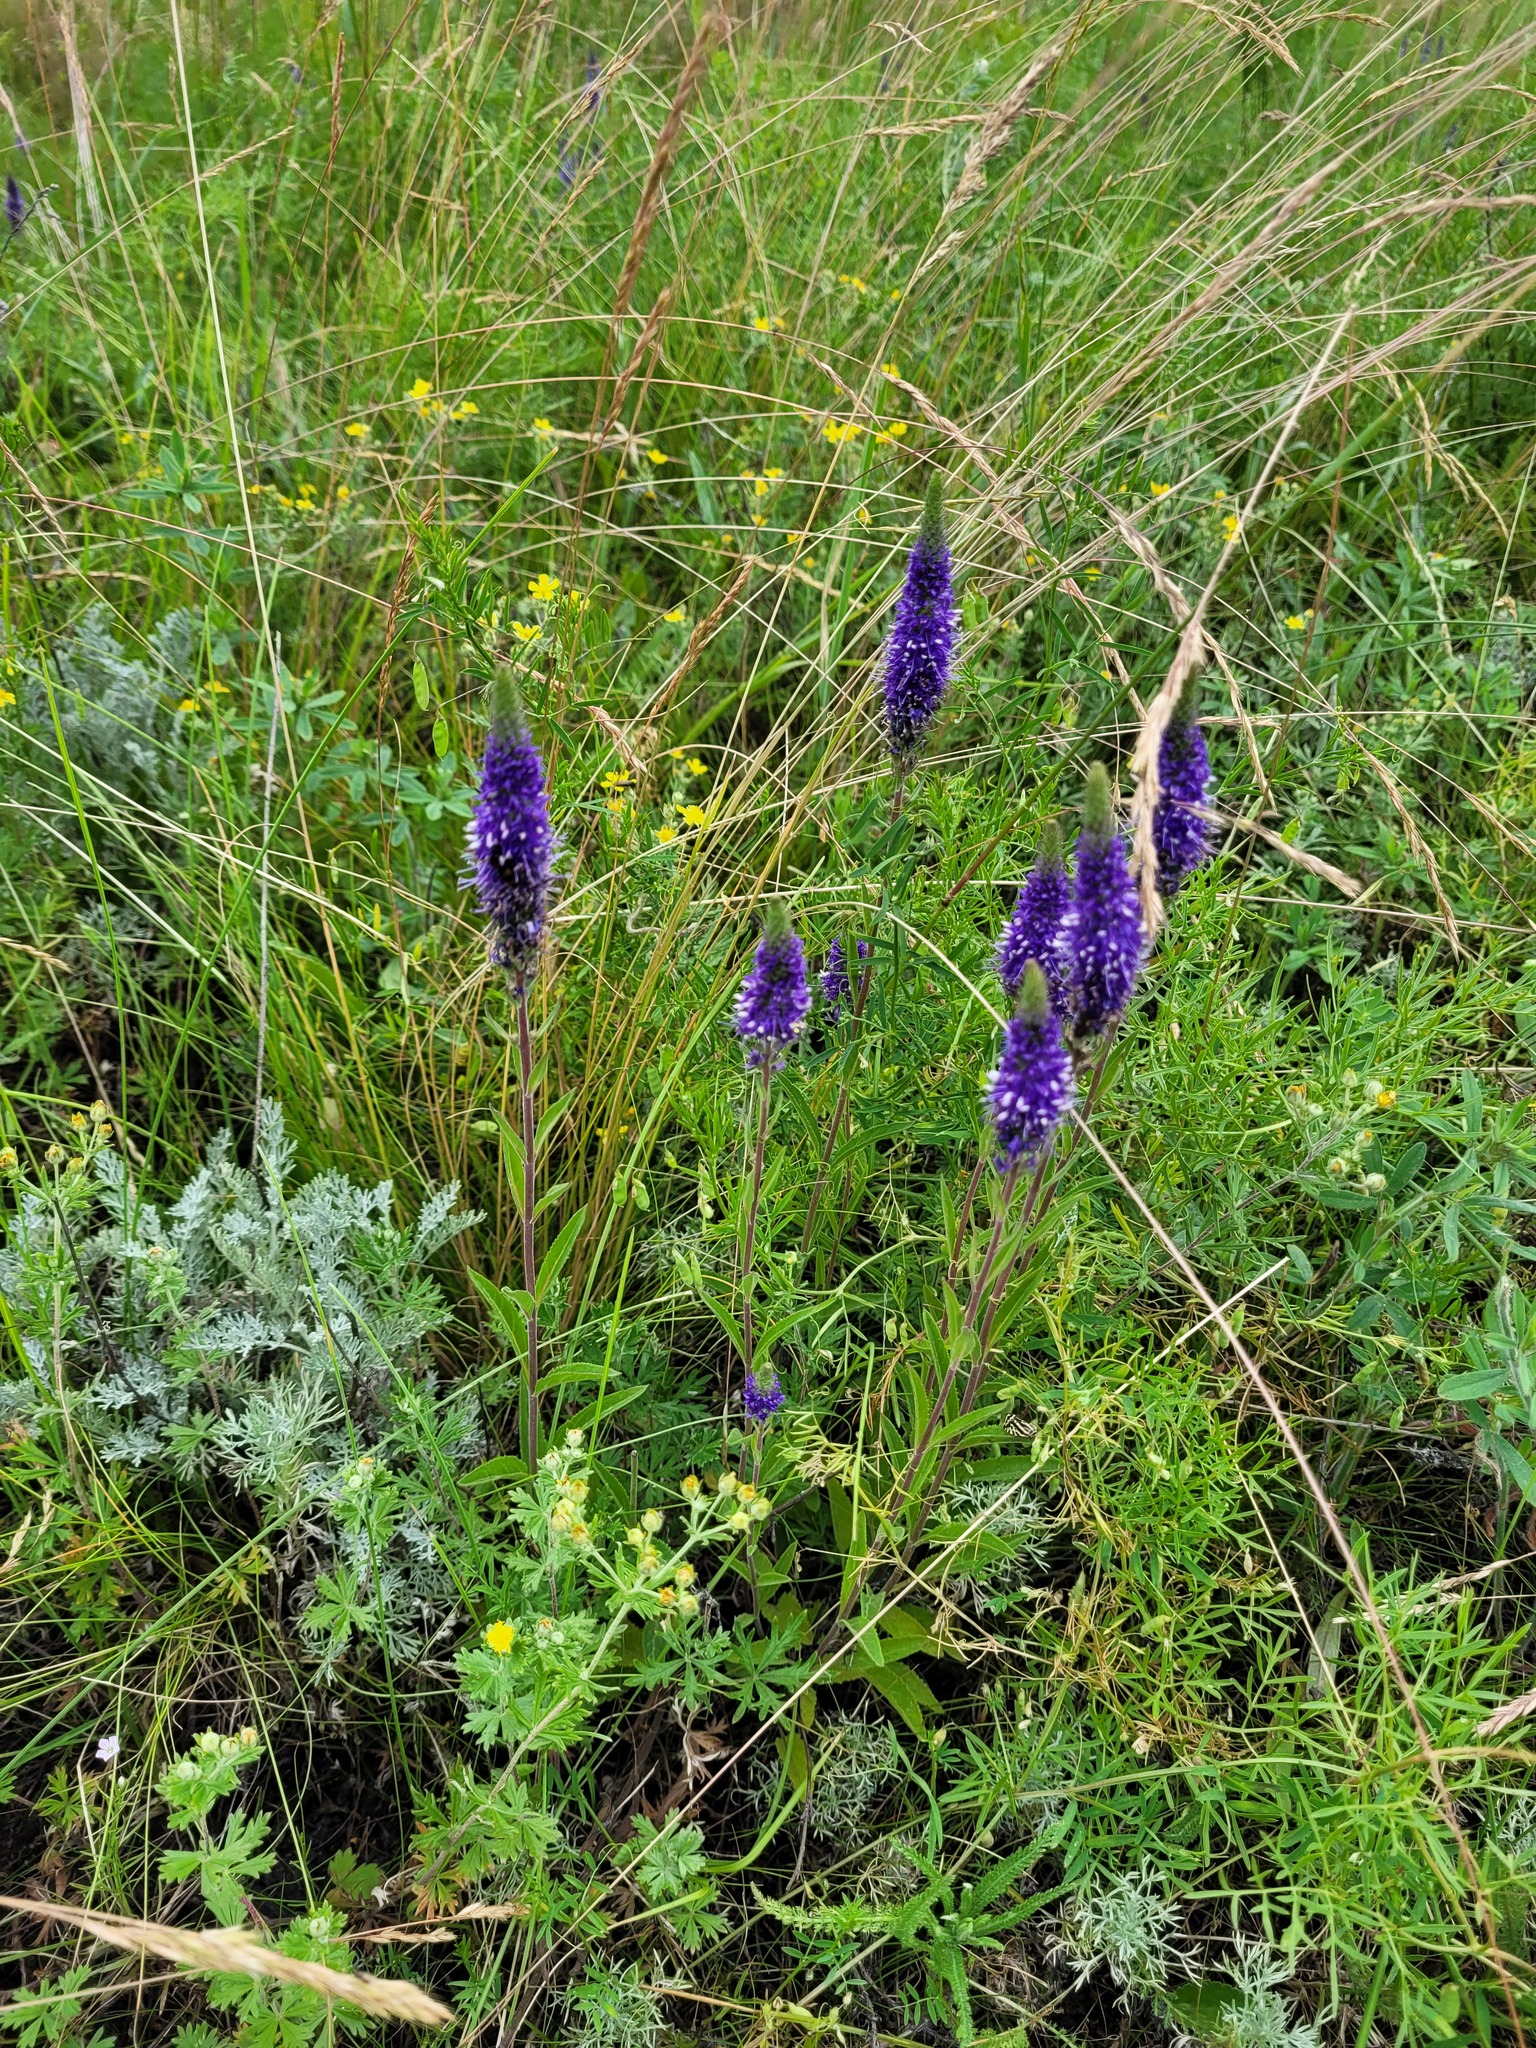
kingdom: Plantae
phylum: Tracheophyta
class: Magnoliopsida
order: Lamiales
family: Plantaginaceae
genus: Veronica
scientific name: Veronica spicata
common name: Spiked speedwell
